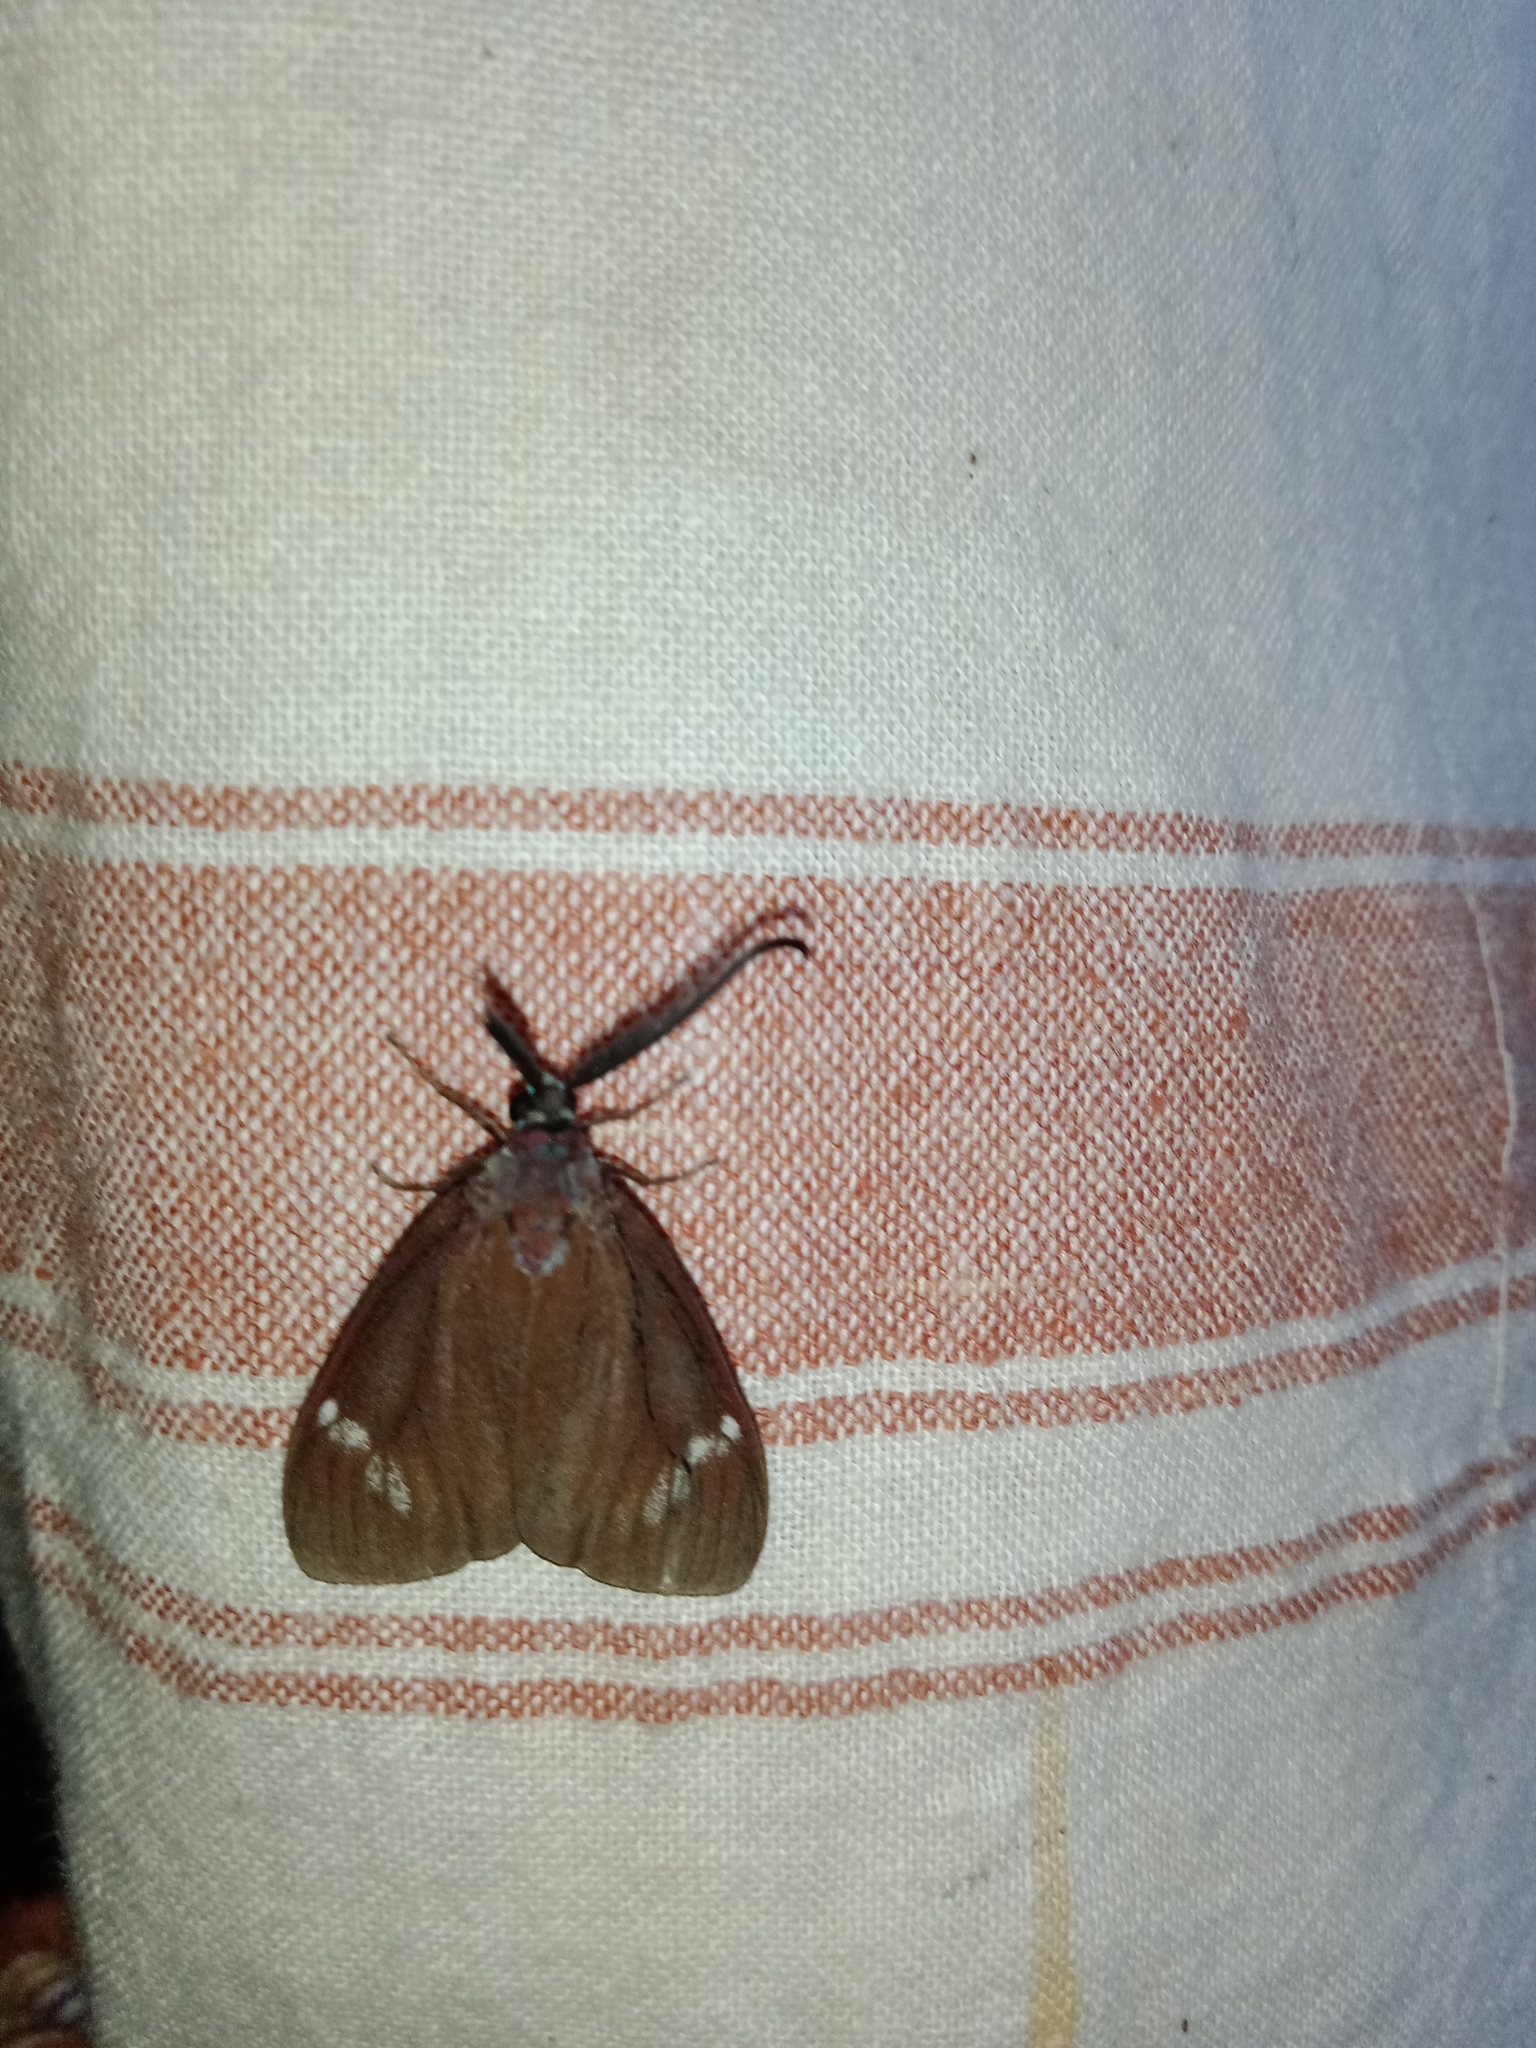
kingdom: Animalia
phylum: Arthropoda
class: Insecta
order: Lepidoptera
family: Zygaenidae
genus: Cyclosia
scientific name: Cyclosia
